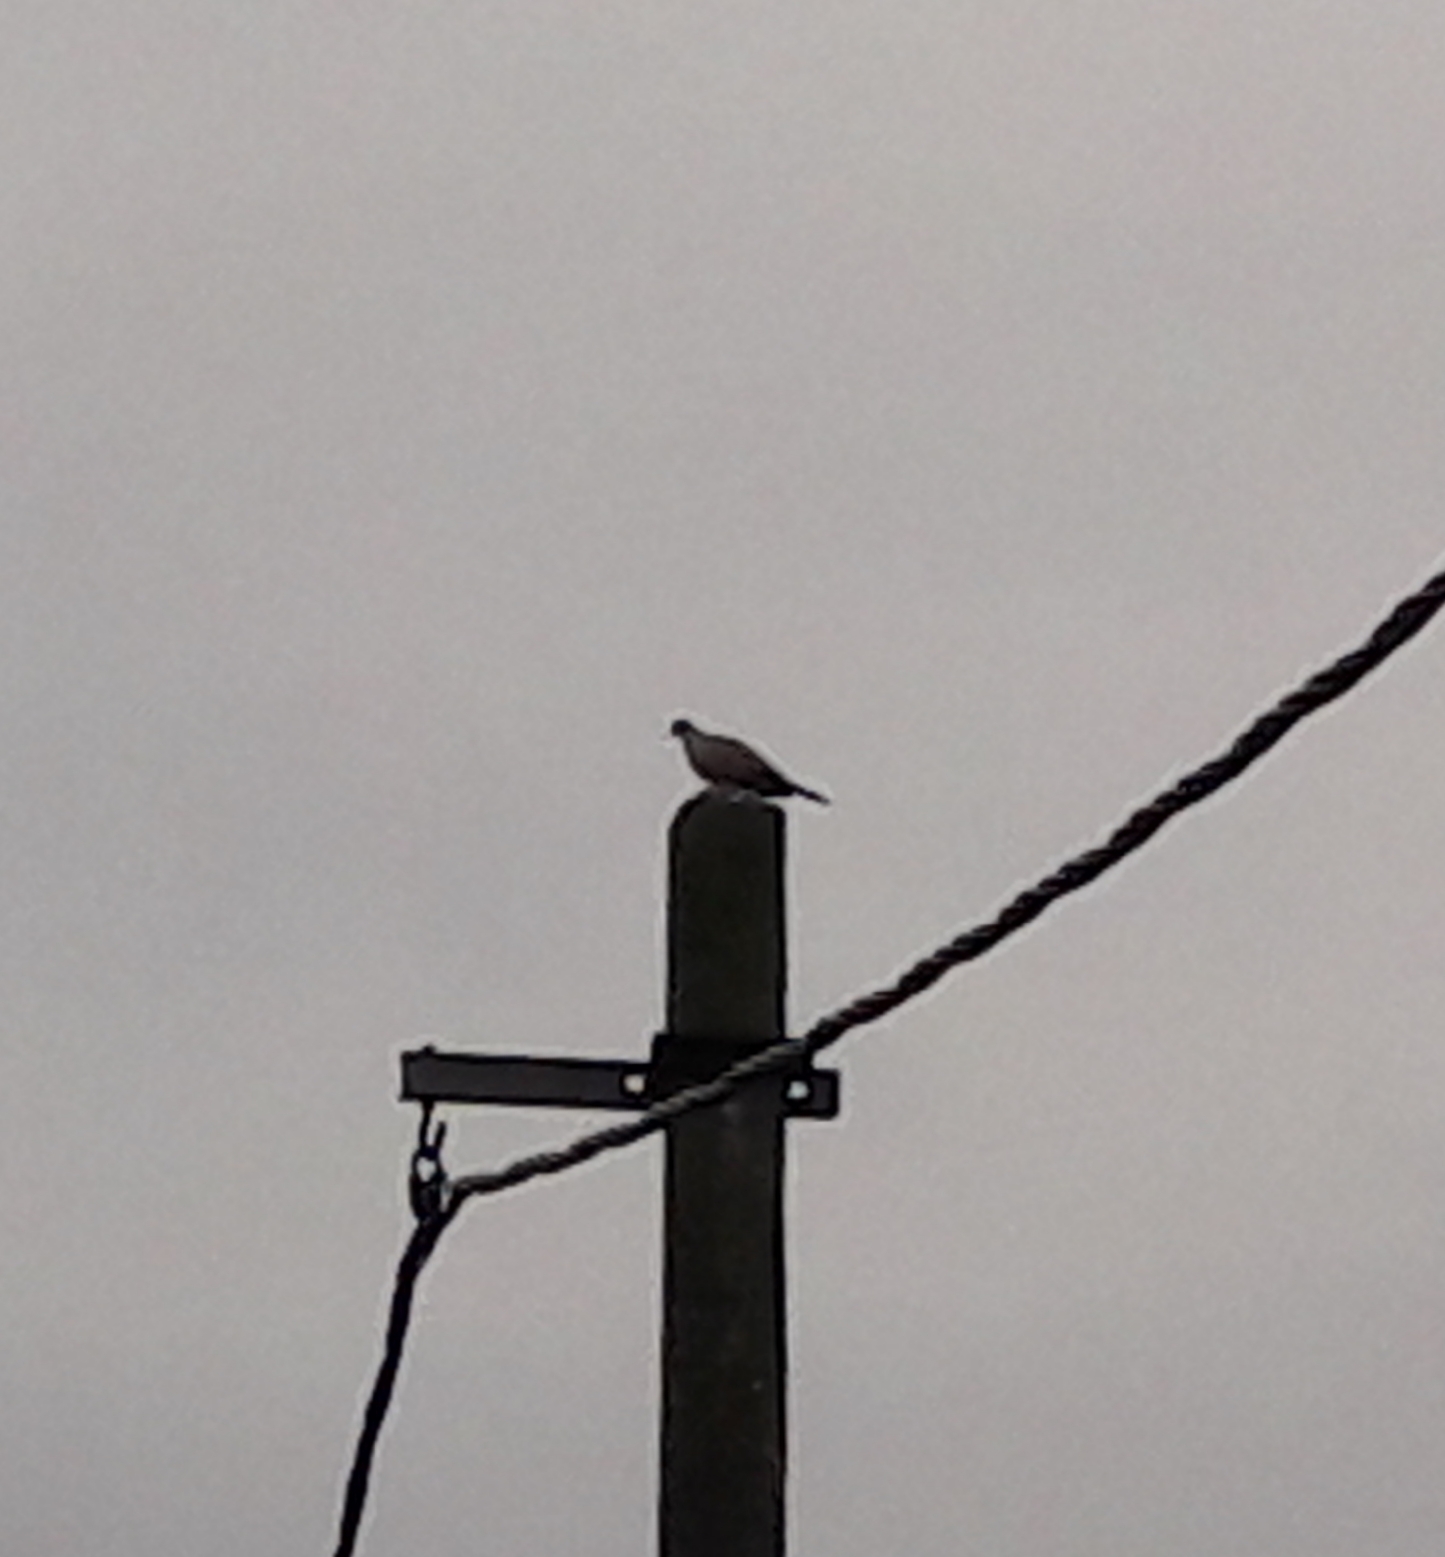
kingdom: Animalia
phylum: Chordata
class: Aves
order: Columbiformes
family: Columbidae
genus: Streptopelia
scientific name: Streptopelia decaocto
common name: Eurasian collared dove
